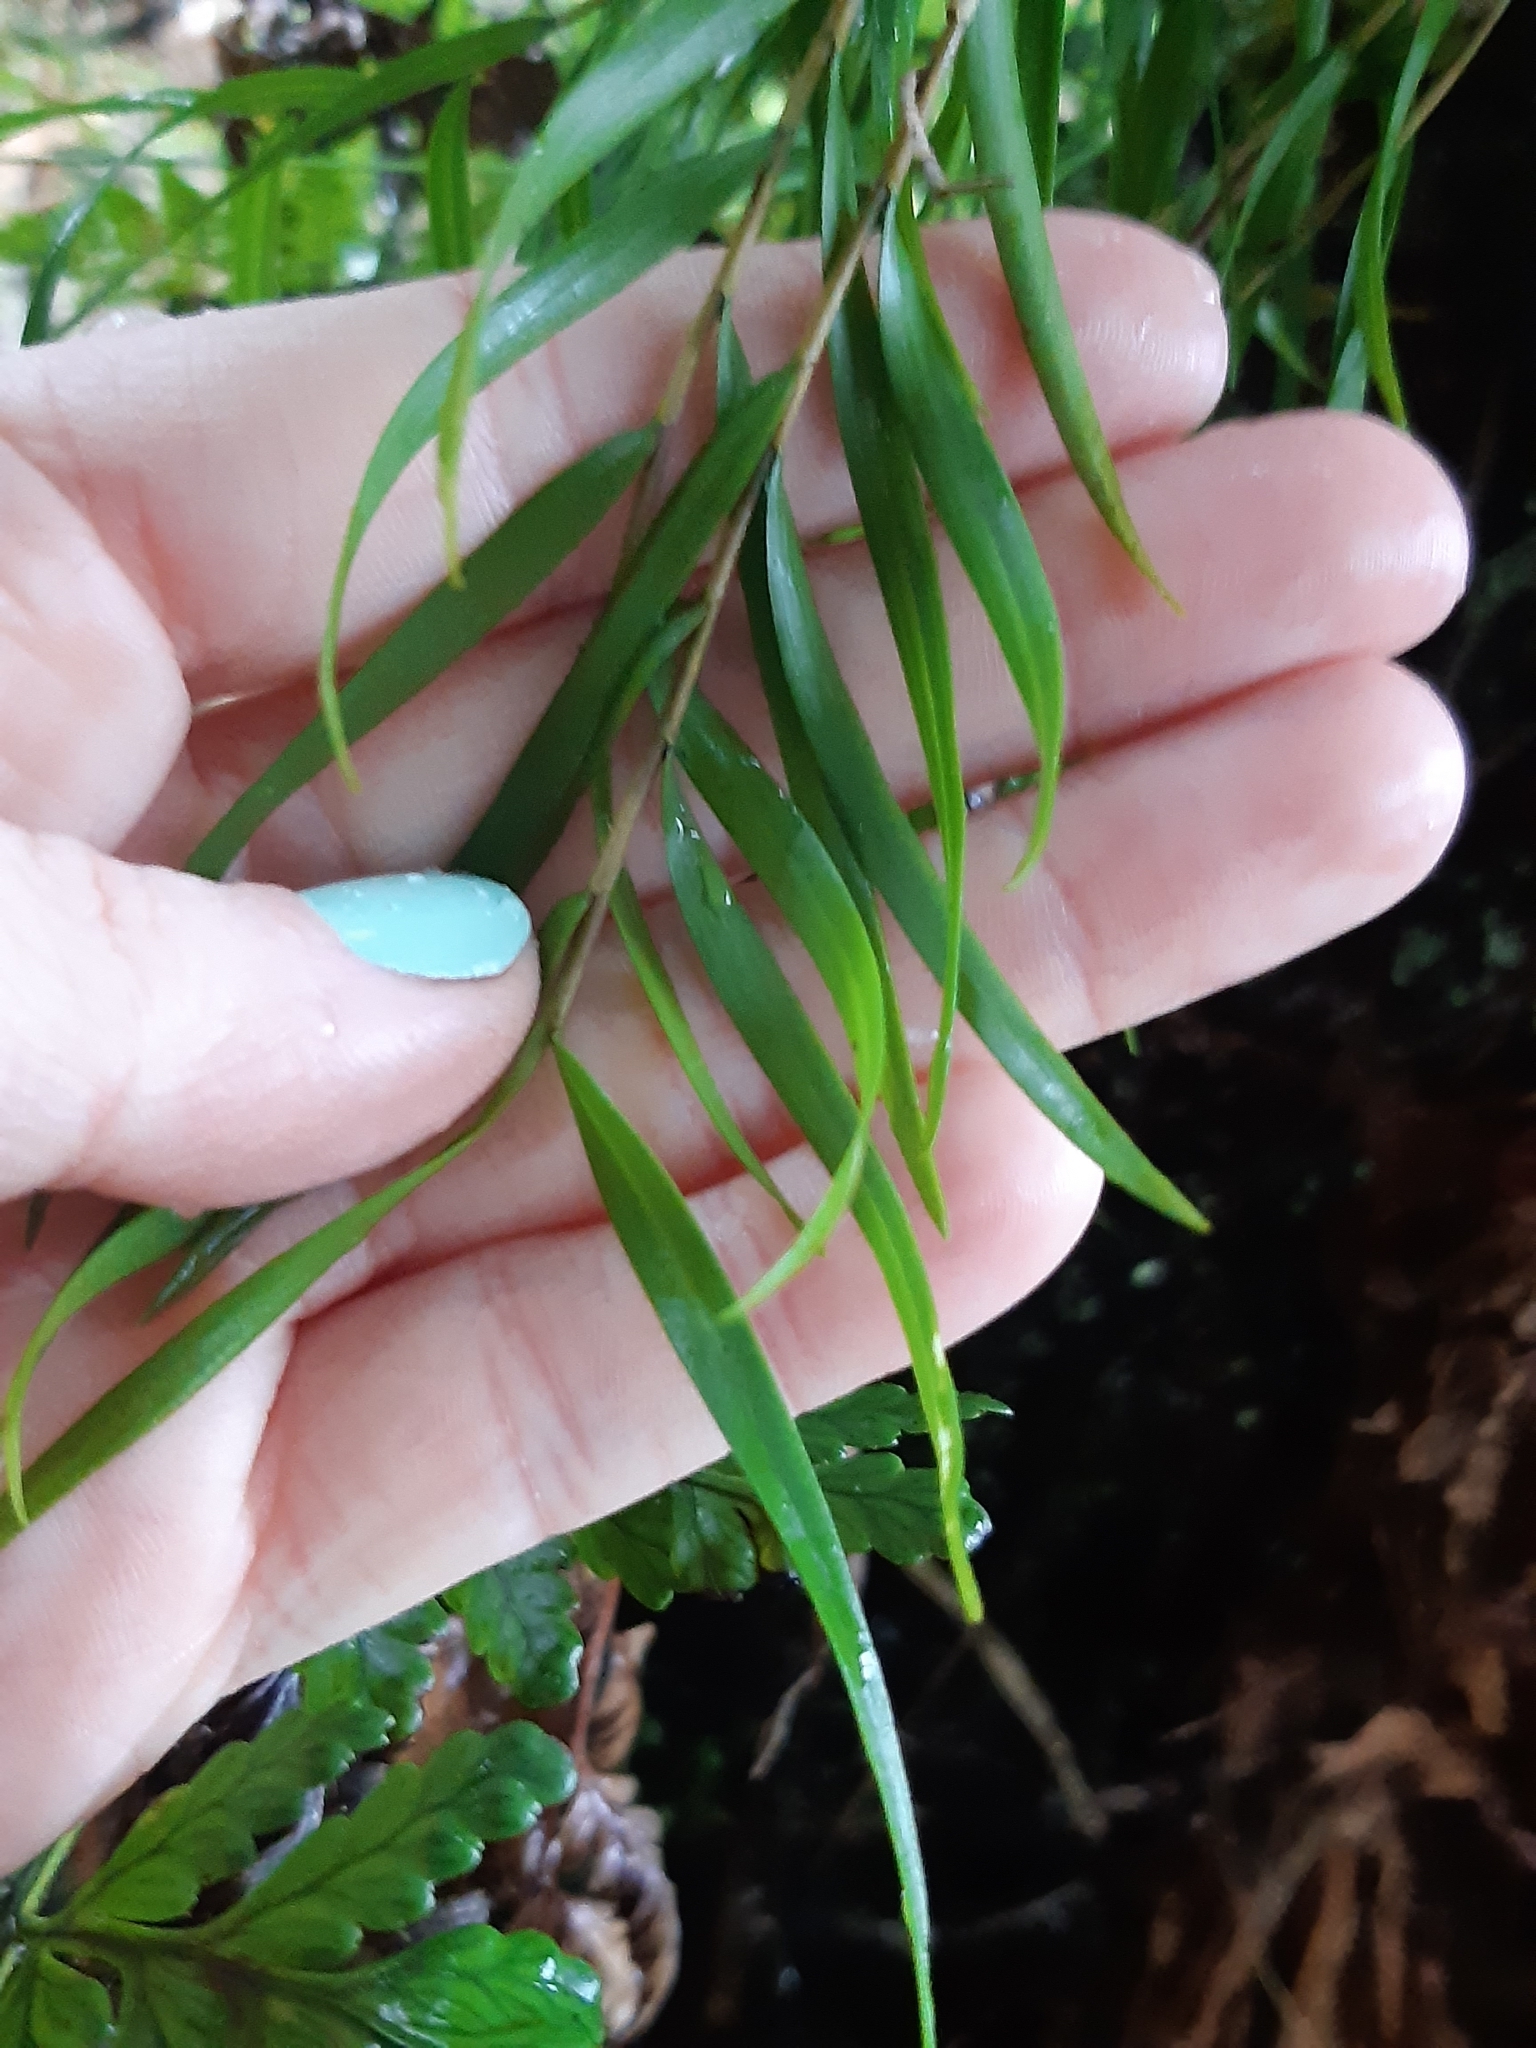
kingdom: Plantae
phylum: Tracheophyta
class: Liliopsida
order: Asparagales
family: Orchidaceae
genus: Dendrobium
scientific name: Dendrobium cunninghamii
